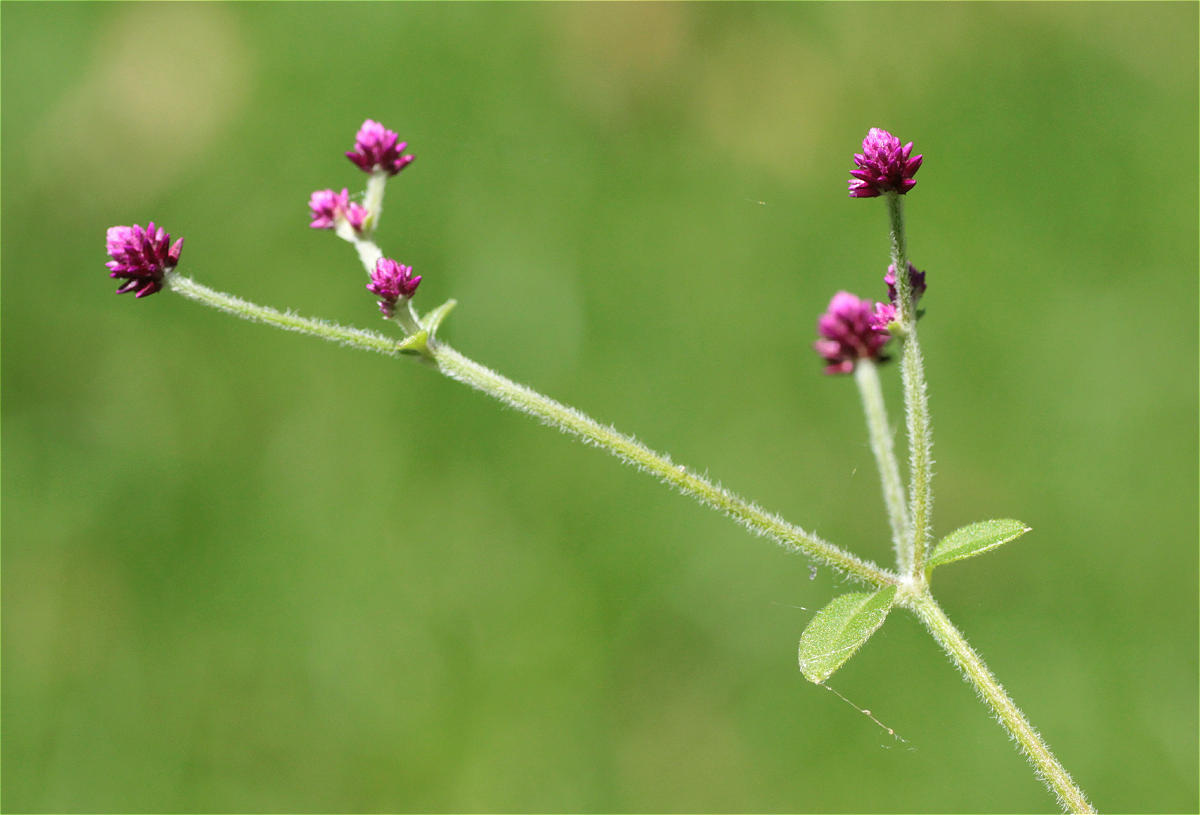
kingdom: Plantae
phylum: Tracheophyta
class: Magnoliopsida
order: Caryophyllales
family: Amaranthaceae
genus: Alternanthera
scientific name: Alternanthera porrigens
